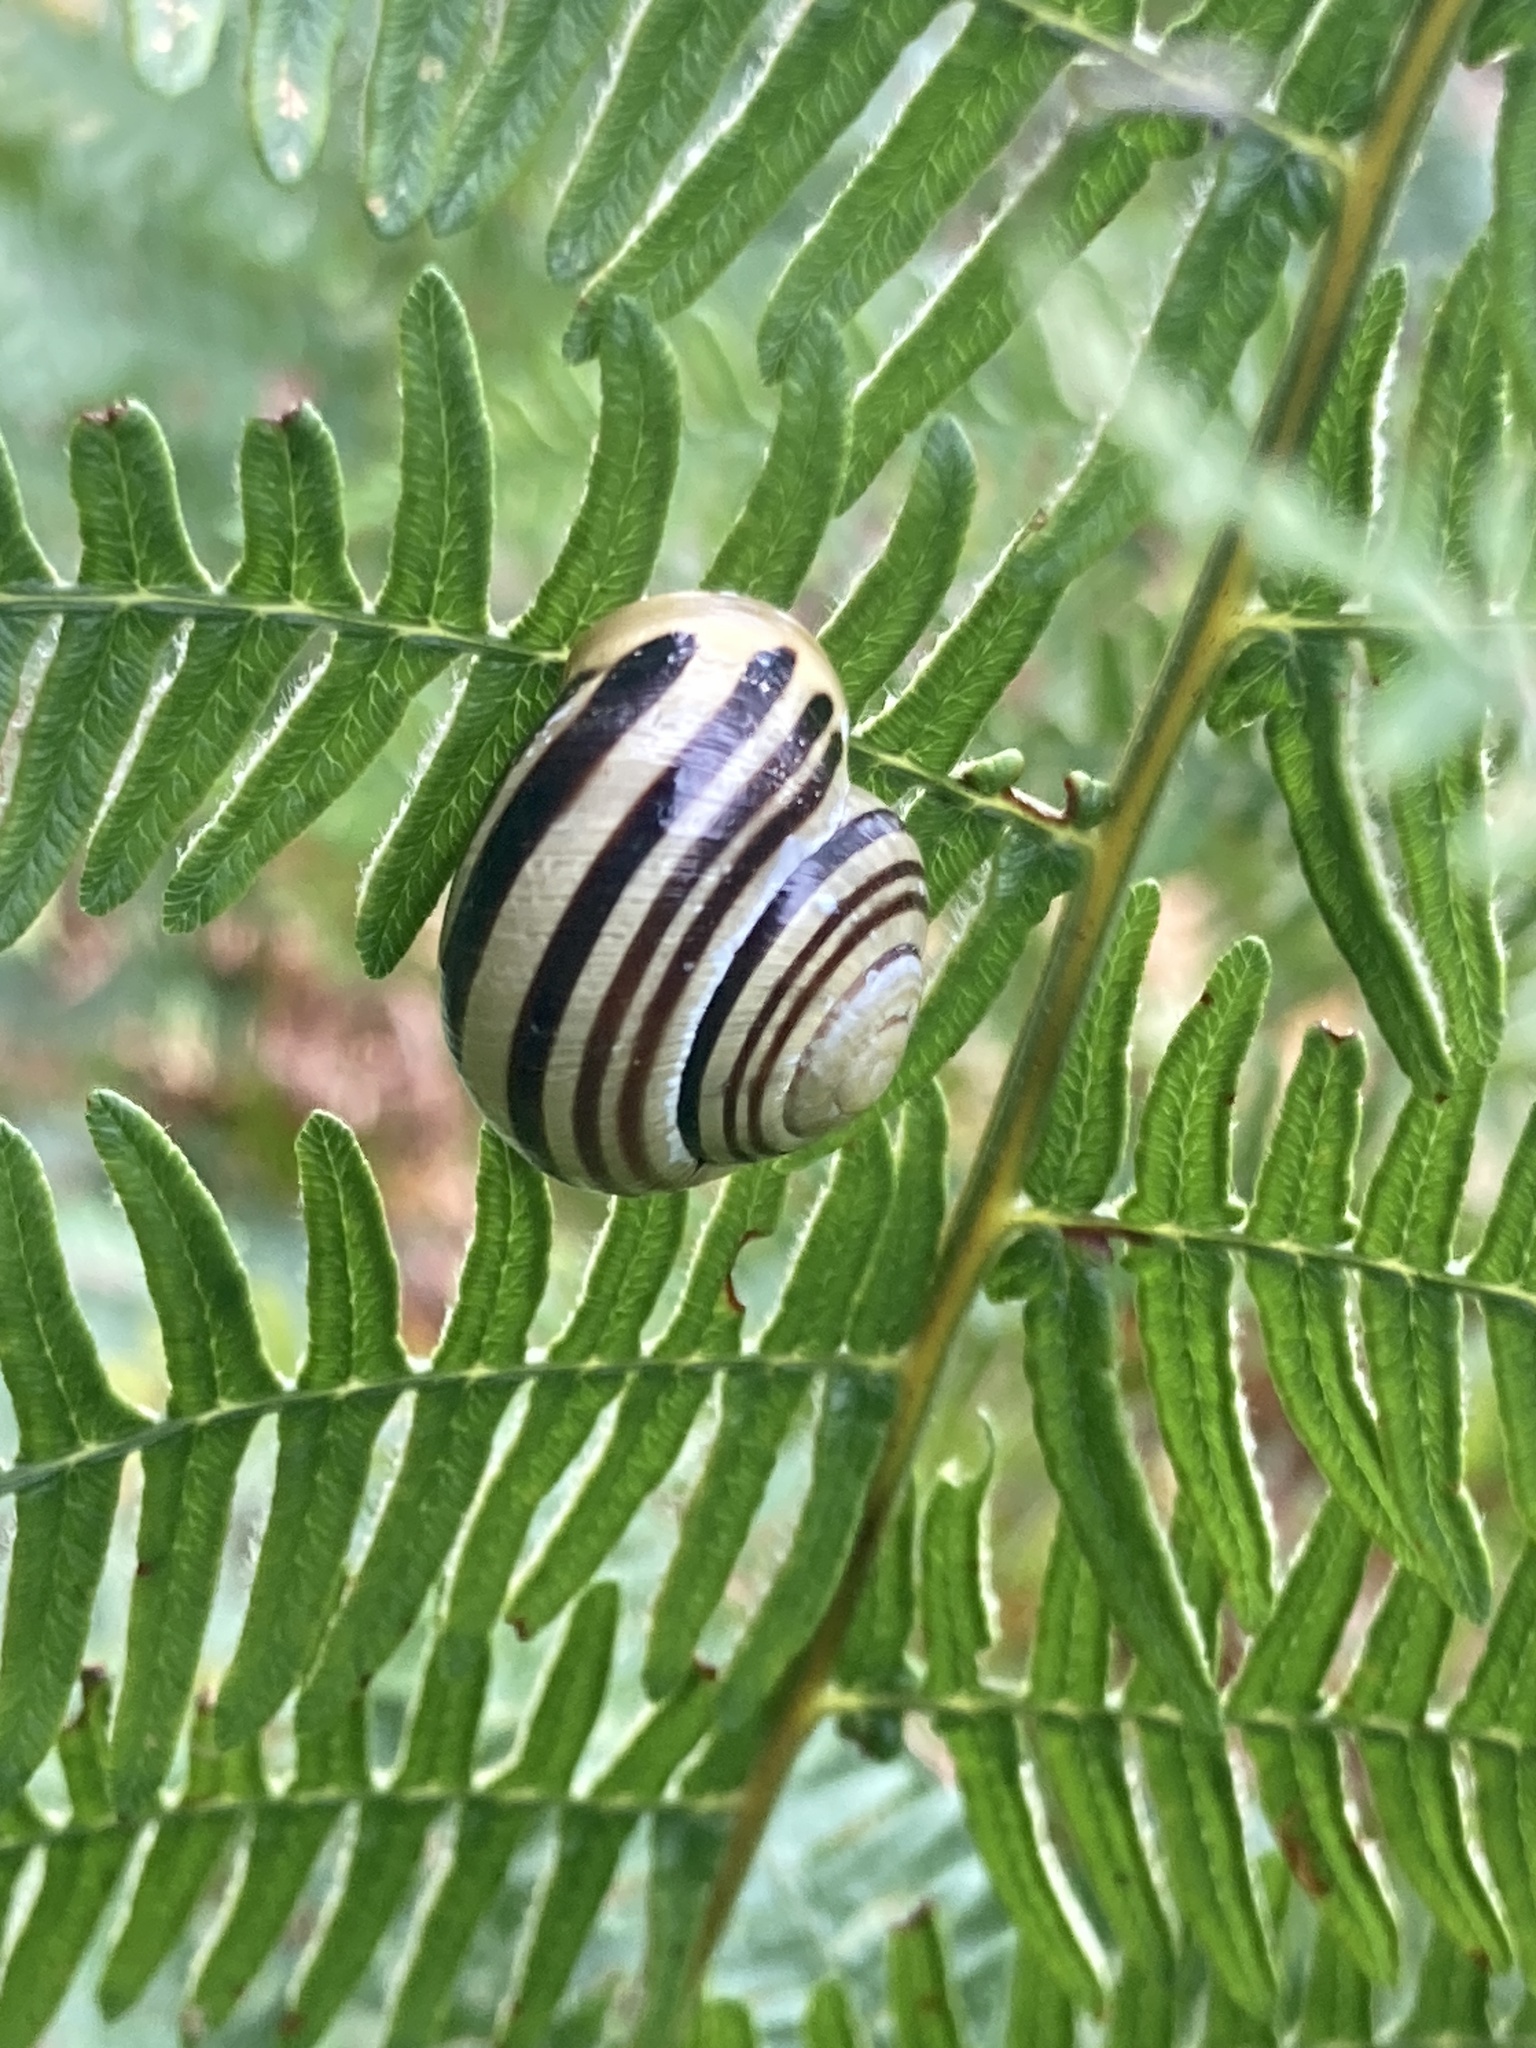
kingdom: Animalia
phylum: Mollusca
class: Gastropoda
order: Stylommatophora
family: Helicidae
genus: Cepaea
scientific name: Cepaea hortensis
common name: White-lip gardensnail
